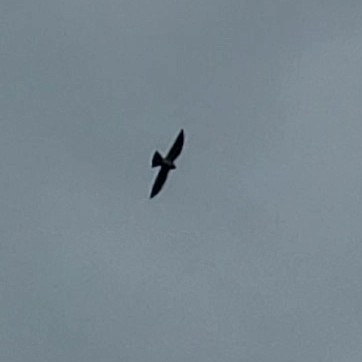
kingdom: Animalia
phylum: Chordata
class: Aves
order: Accipitriformes
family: Accipitridae
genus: Ictinia
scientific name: Ictinia mississippiensis
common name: Mississippi kite
